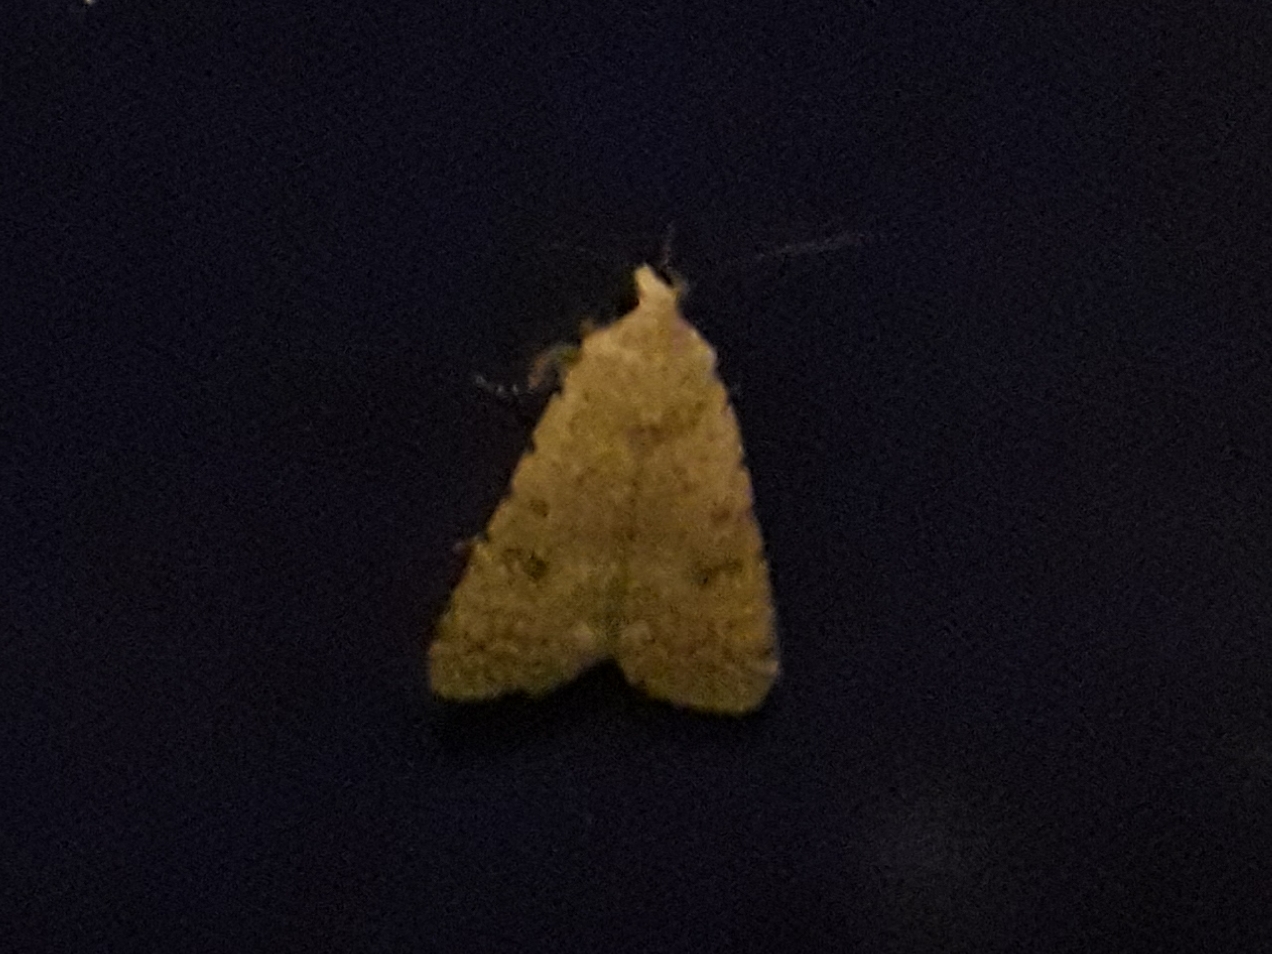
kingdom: Animalia
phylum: Arthropoda
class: Insecta
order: Lepidoptera
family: Noctuidae
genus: Caradrina
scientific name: Caradrina
